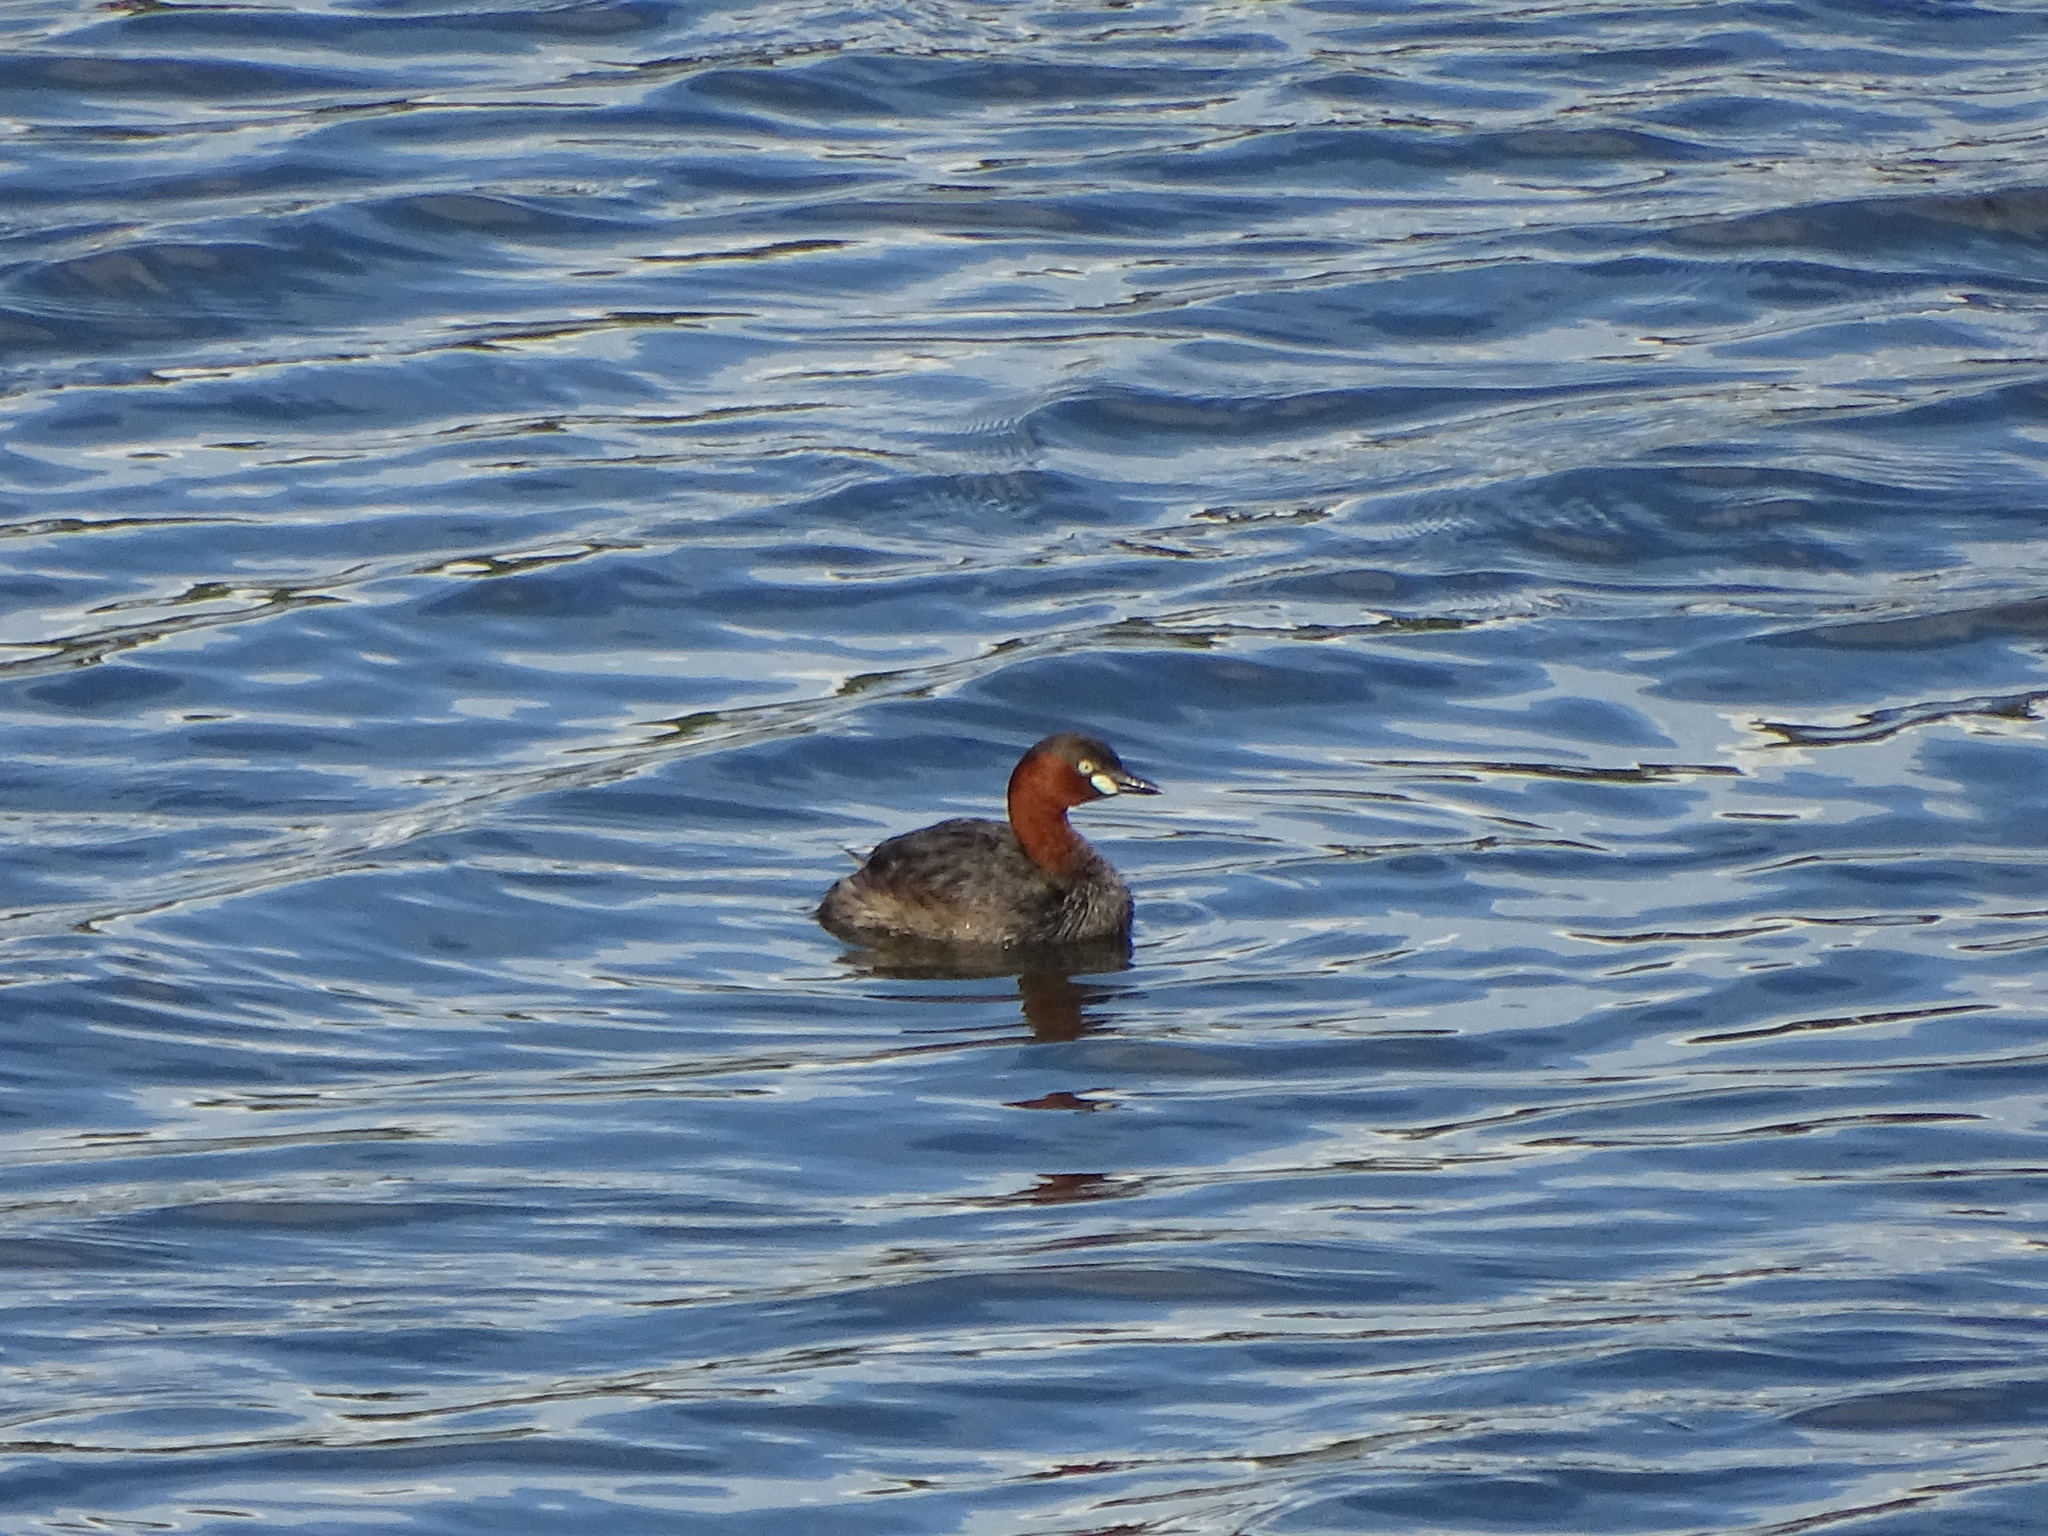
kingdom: Animalia
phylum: Chordata
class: Aves
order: Podicipediformes
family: Podicipedidae
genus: Tachybaptus
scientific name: Tachybaptus ruficollis
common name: Little grebe
